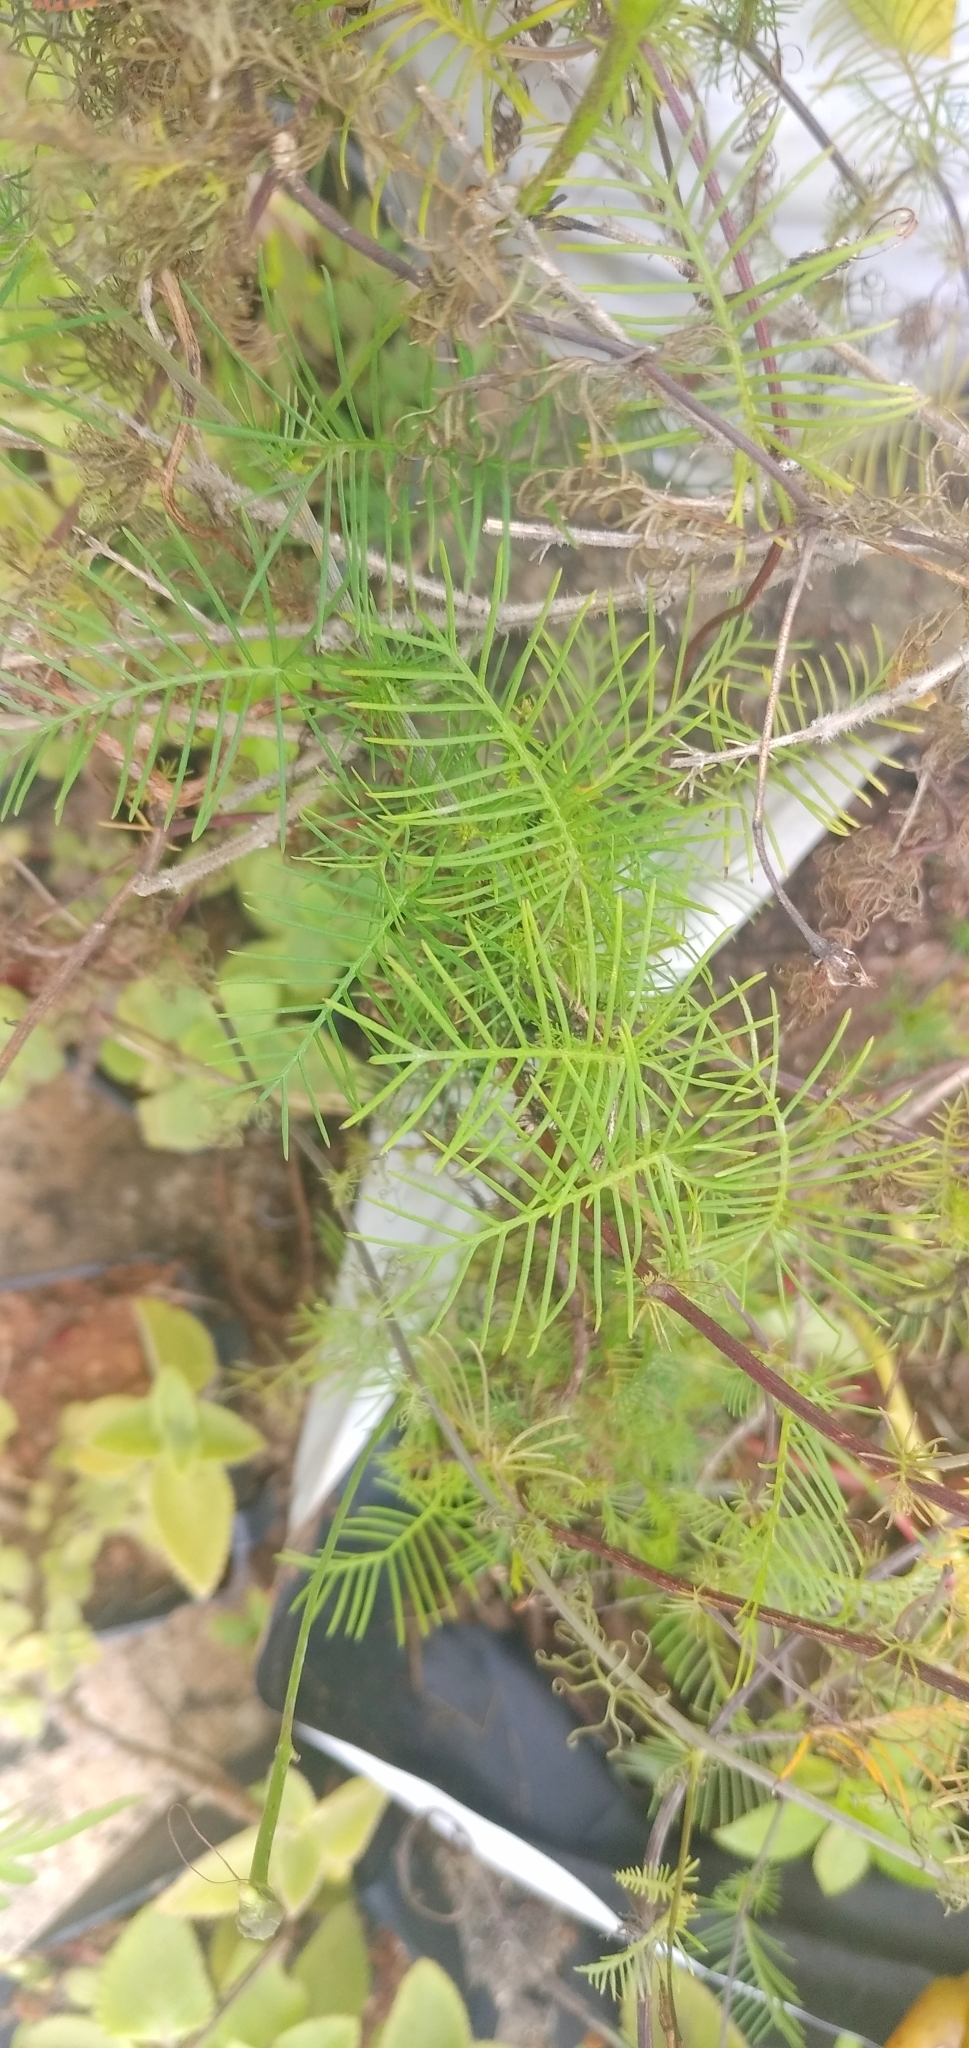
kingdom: Plantae
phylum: Tracheophyta
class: Magnoliopsida
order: Solanales
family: Convolvulaceae
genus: Ipomoea
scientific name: Ipomoea quamoclit
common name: Cypress vine
